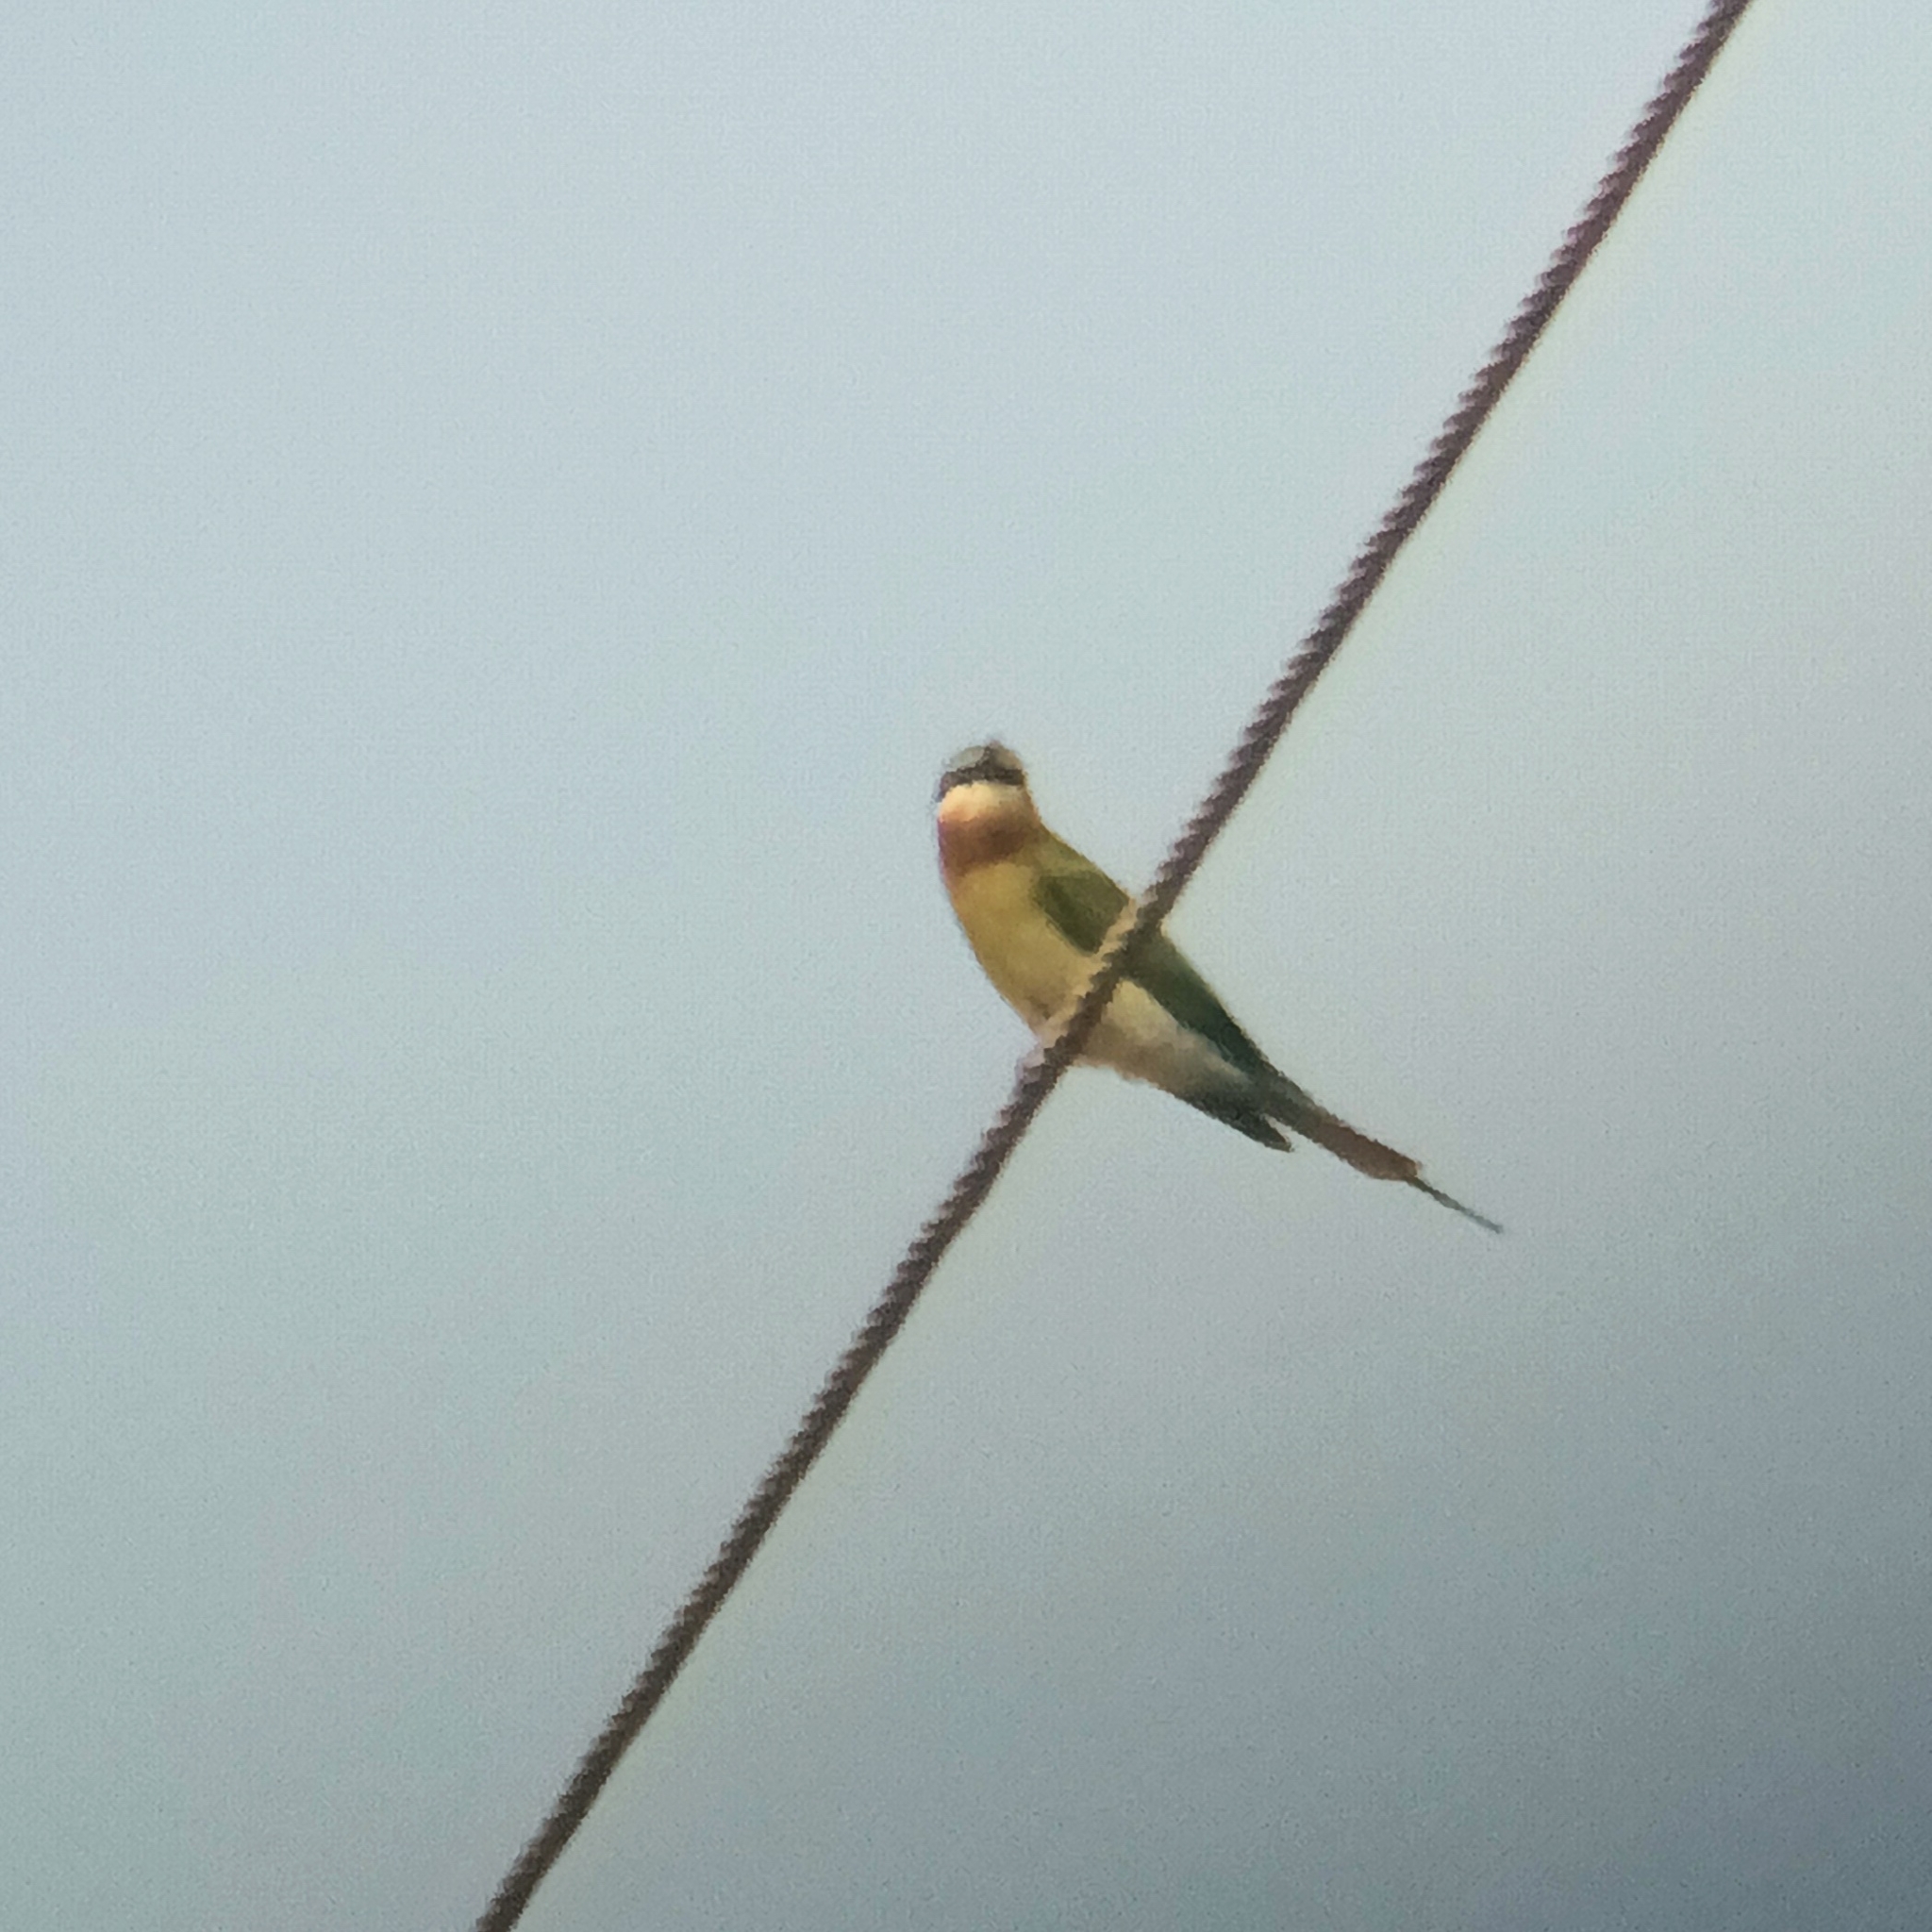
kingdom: Animalia
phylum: Chordata
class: Aves
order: Coraciiformes
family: Meropidae
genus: Merops
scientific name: Merops philippinus
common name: Blue-tailed bee-eater
